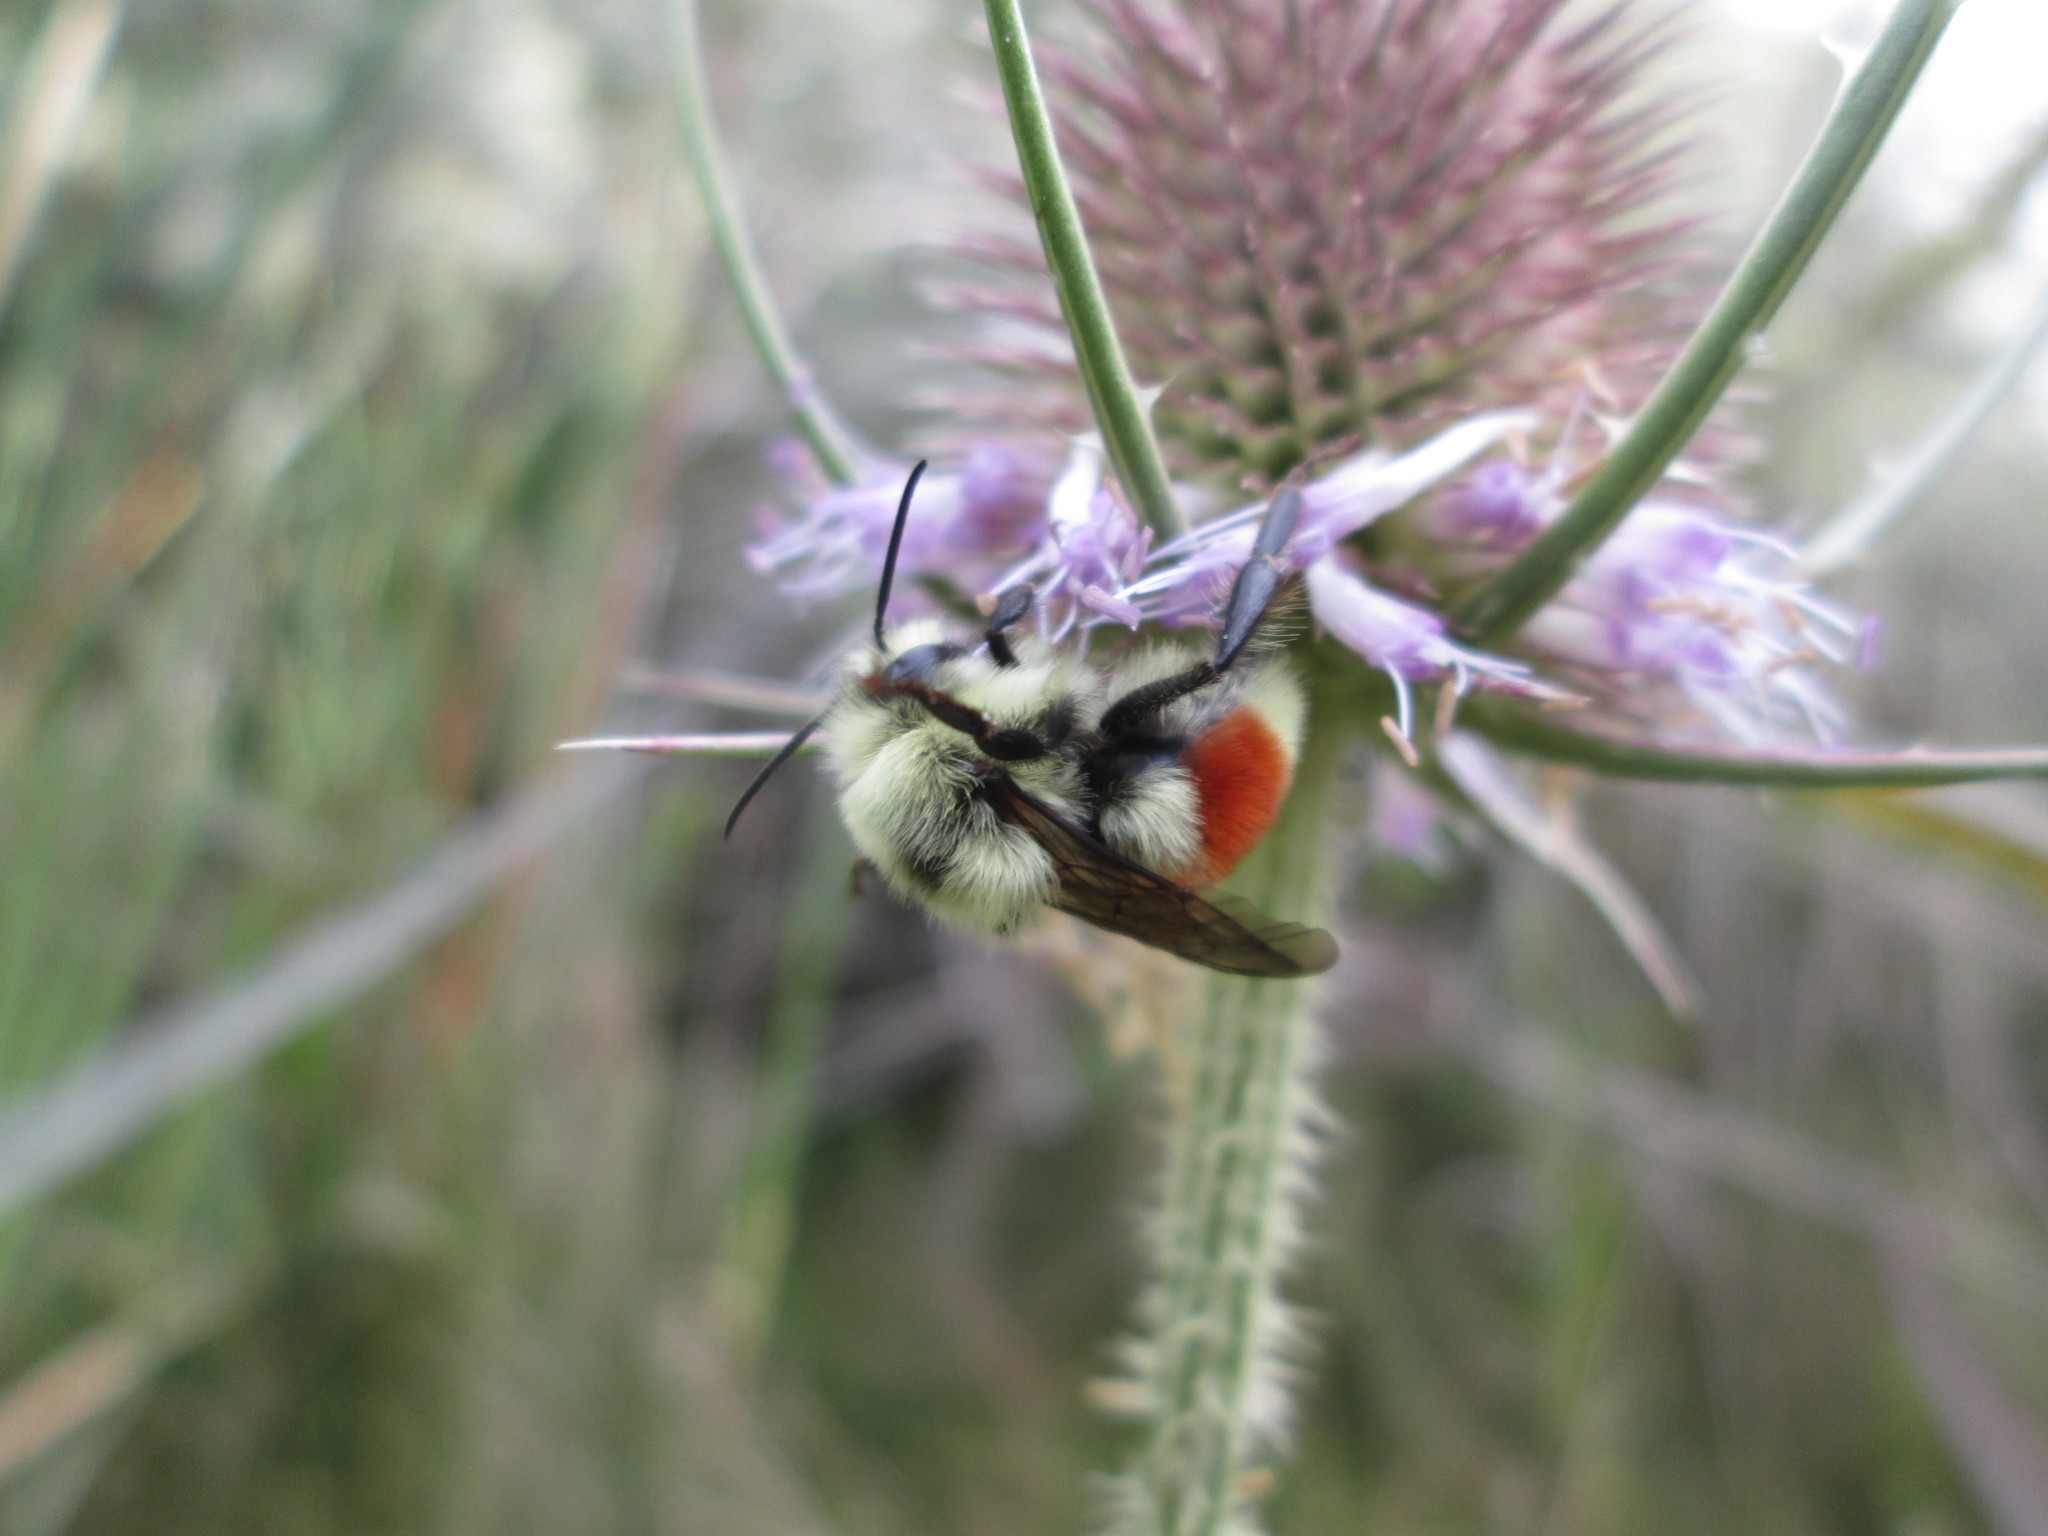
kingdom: Animalia
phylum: Arthropoda
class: Insecta
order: Hymenoptera
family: Apidae
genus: Bombus
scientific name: Bombus huntii
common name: Hunt bumble bee
